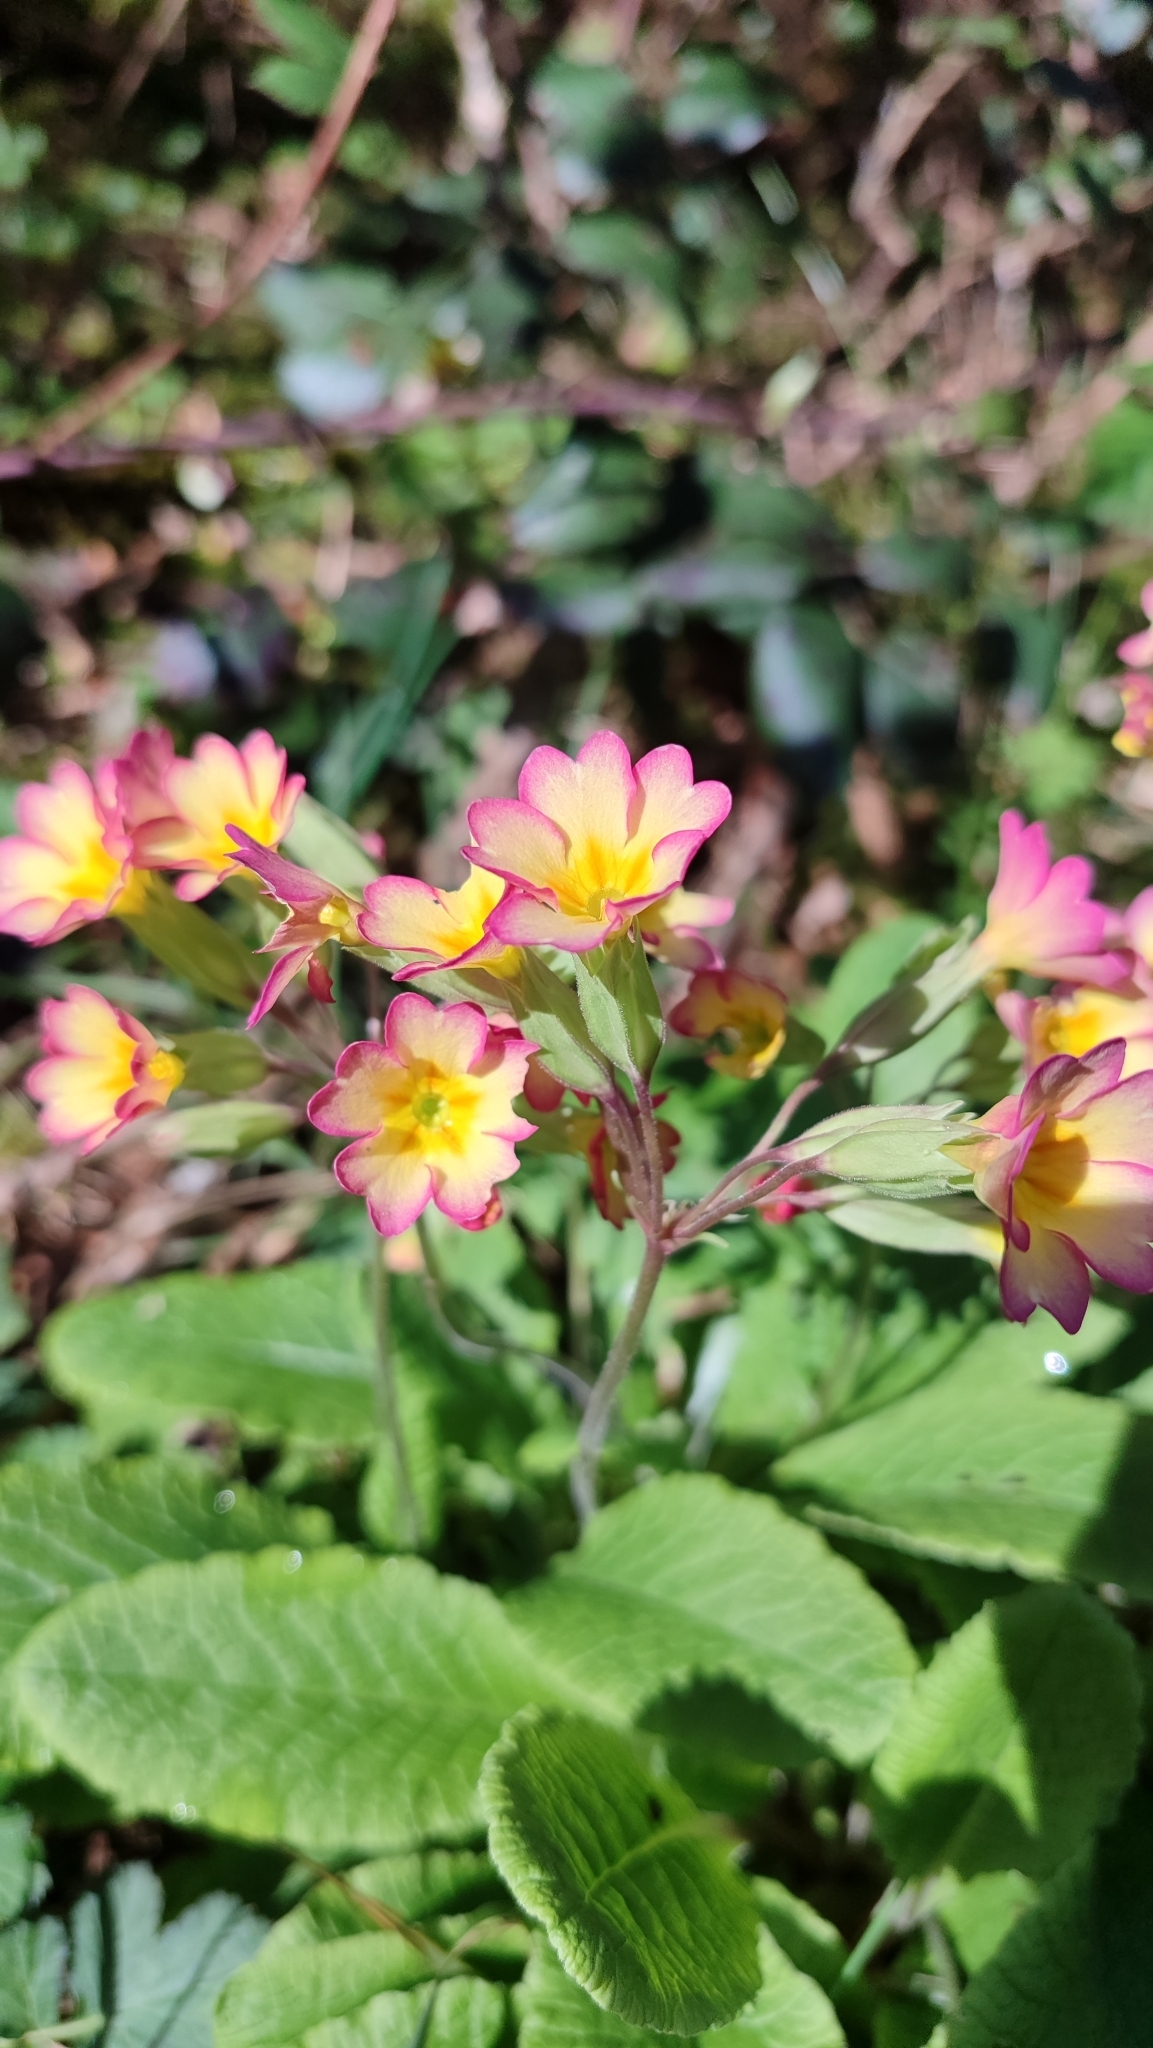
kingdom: Plantae
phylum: Tracheophyta
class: Magnoliopsida
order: Ericales
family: Primulaceae
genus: Primula
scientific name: Primula polyantha
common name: False oxlip
